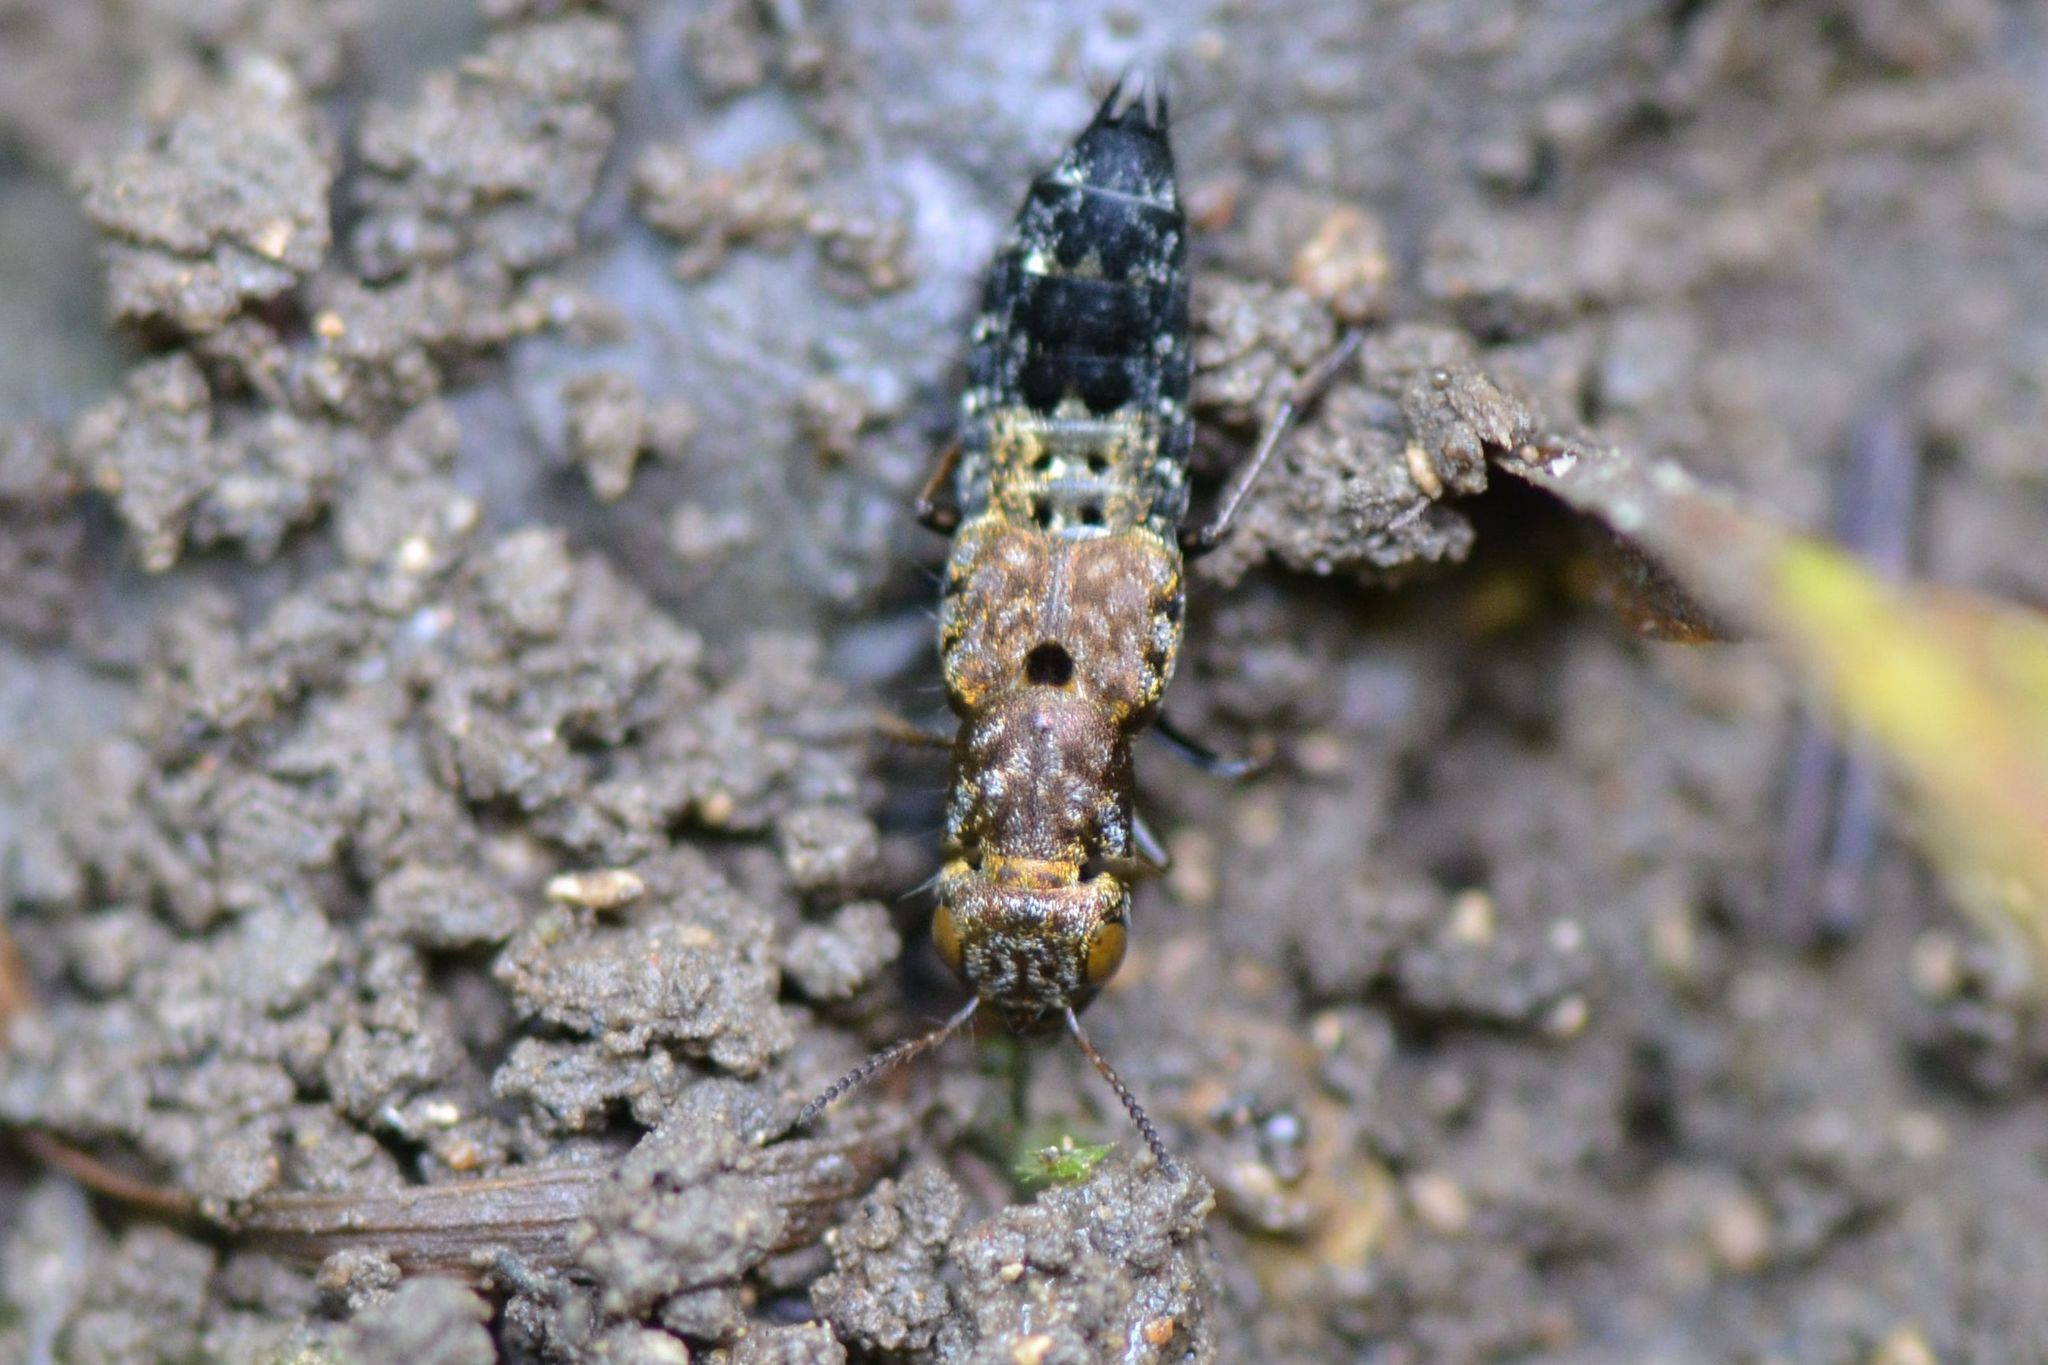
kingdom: Animalia
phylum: Arthropoda
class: Insecta
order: Coleoptera
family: Staphylinidae
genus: Ontholestes
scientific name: Ontholestes haroldi
